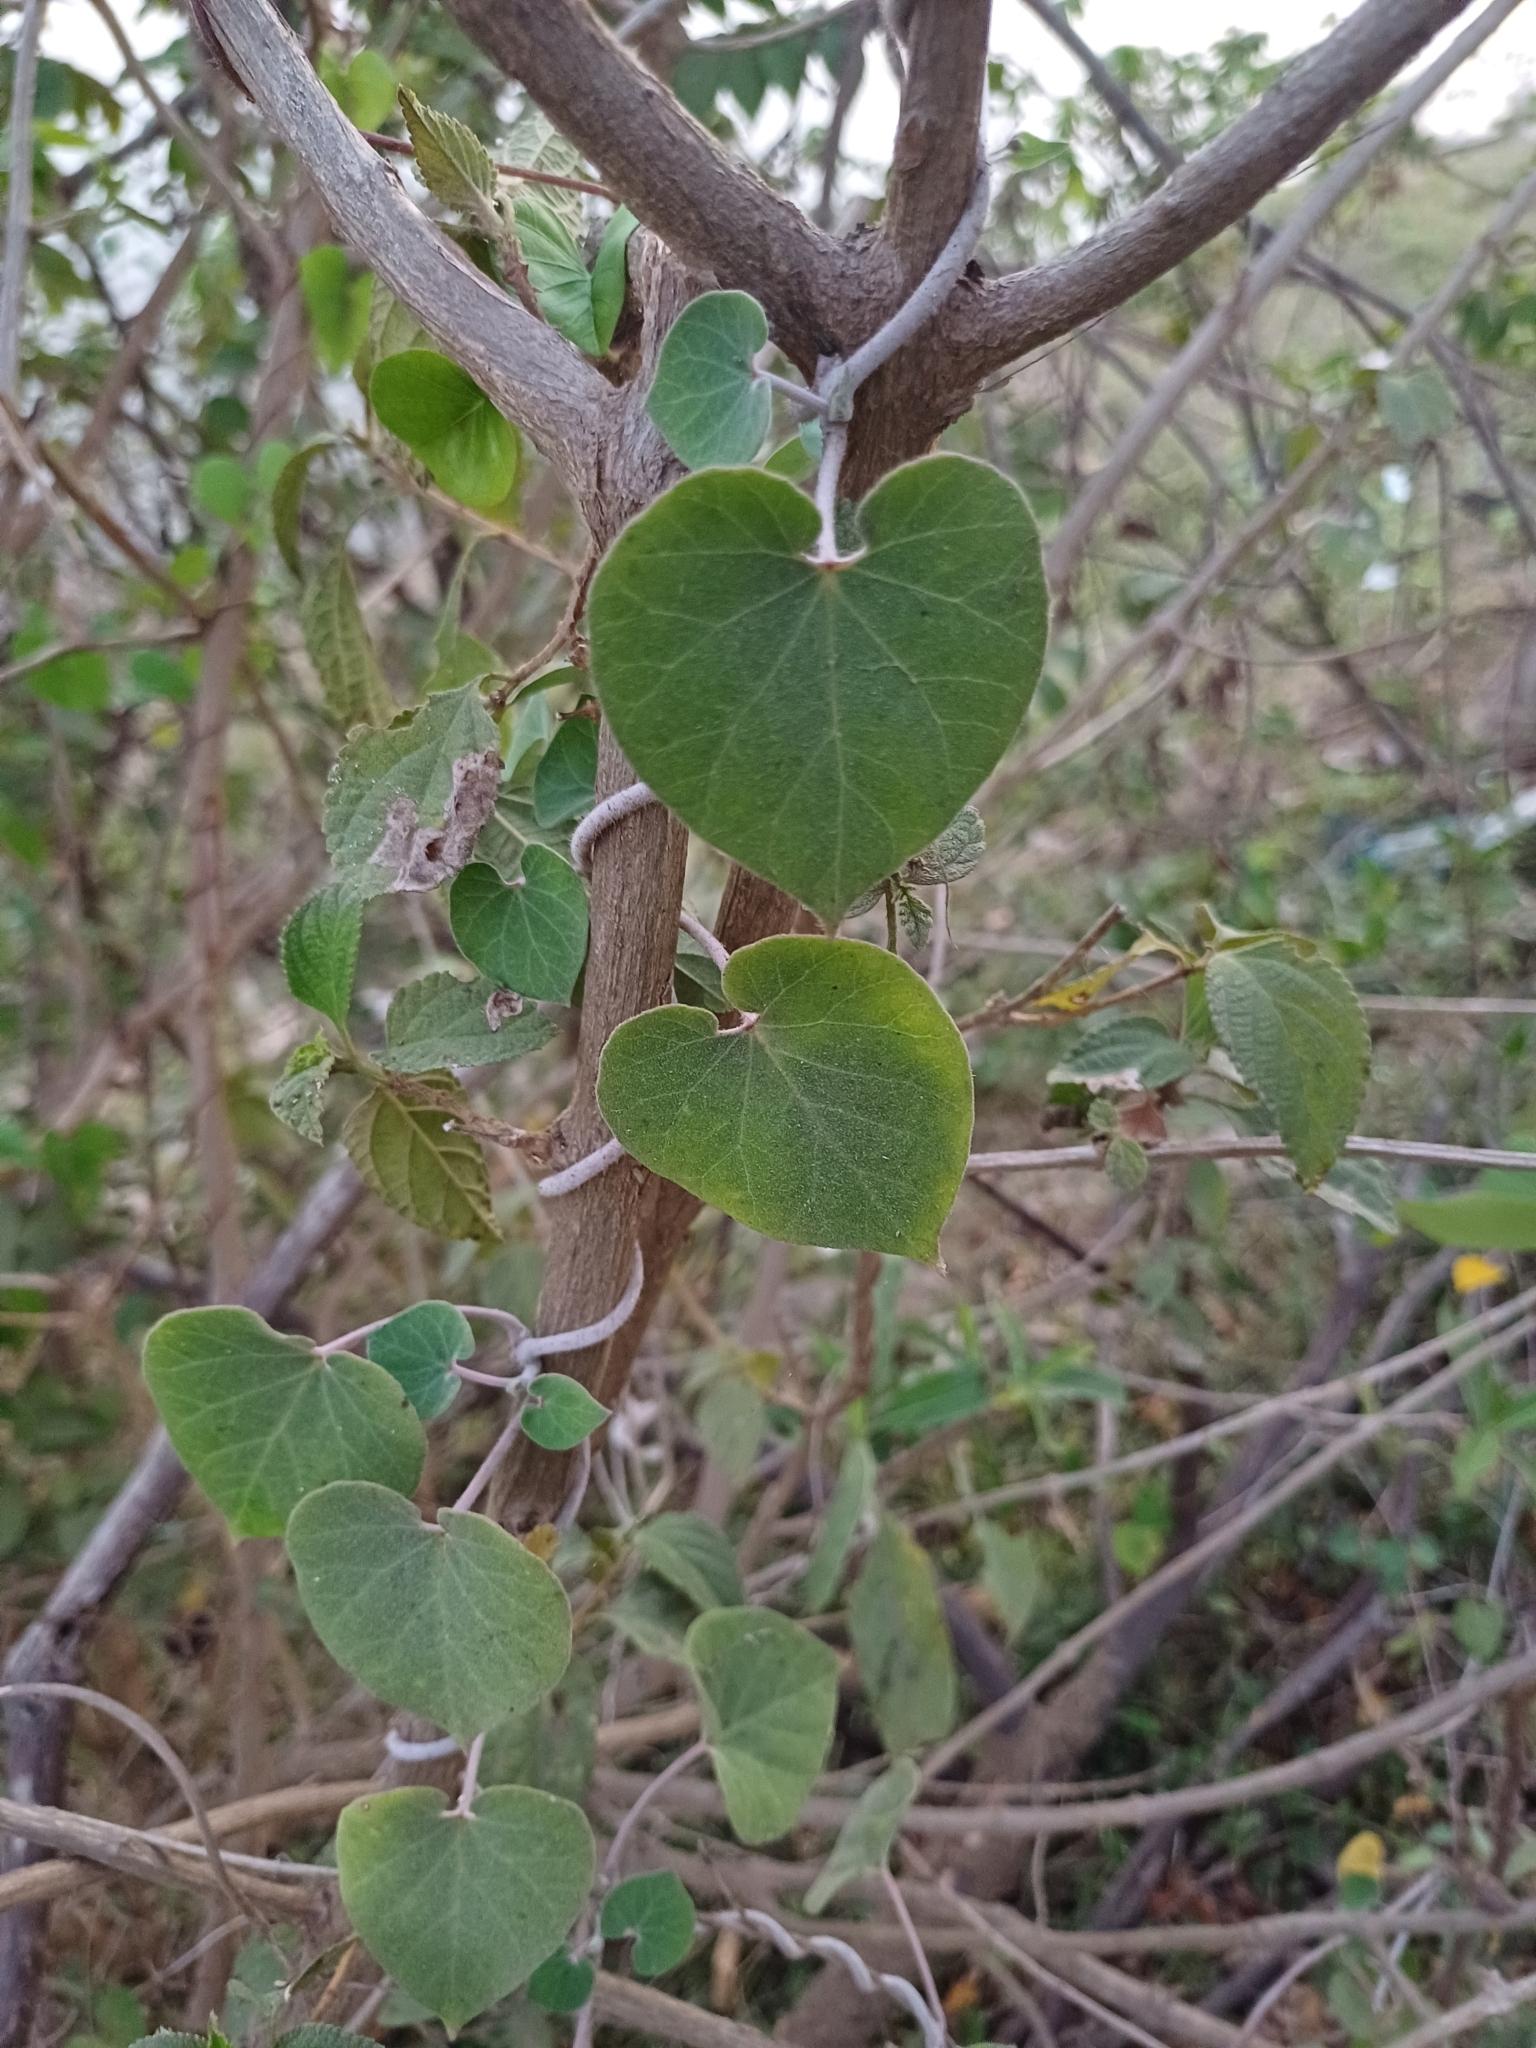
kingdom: Plantae
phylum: Tracheophyta
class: Magnoliopsida
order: Gentianales
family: Apocynaceae
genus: Pergularia
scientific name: Pergularia daemia
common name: Trellis-vine
